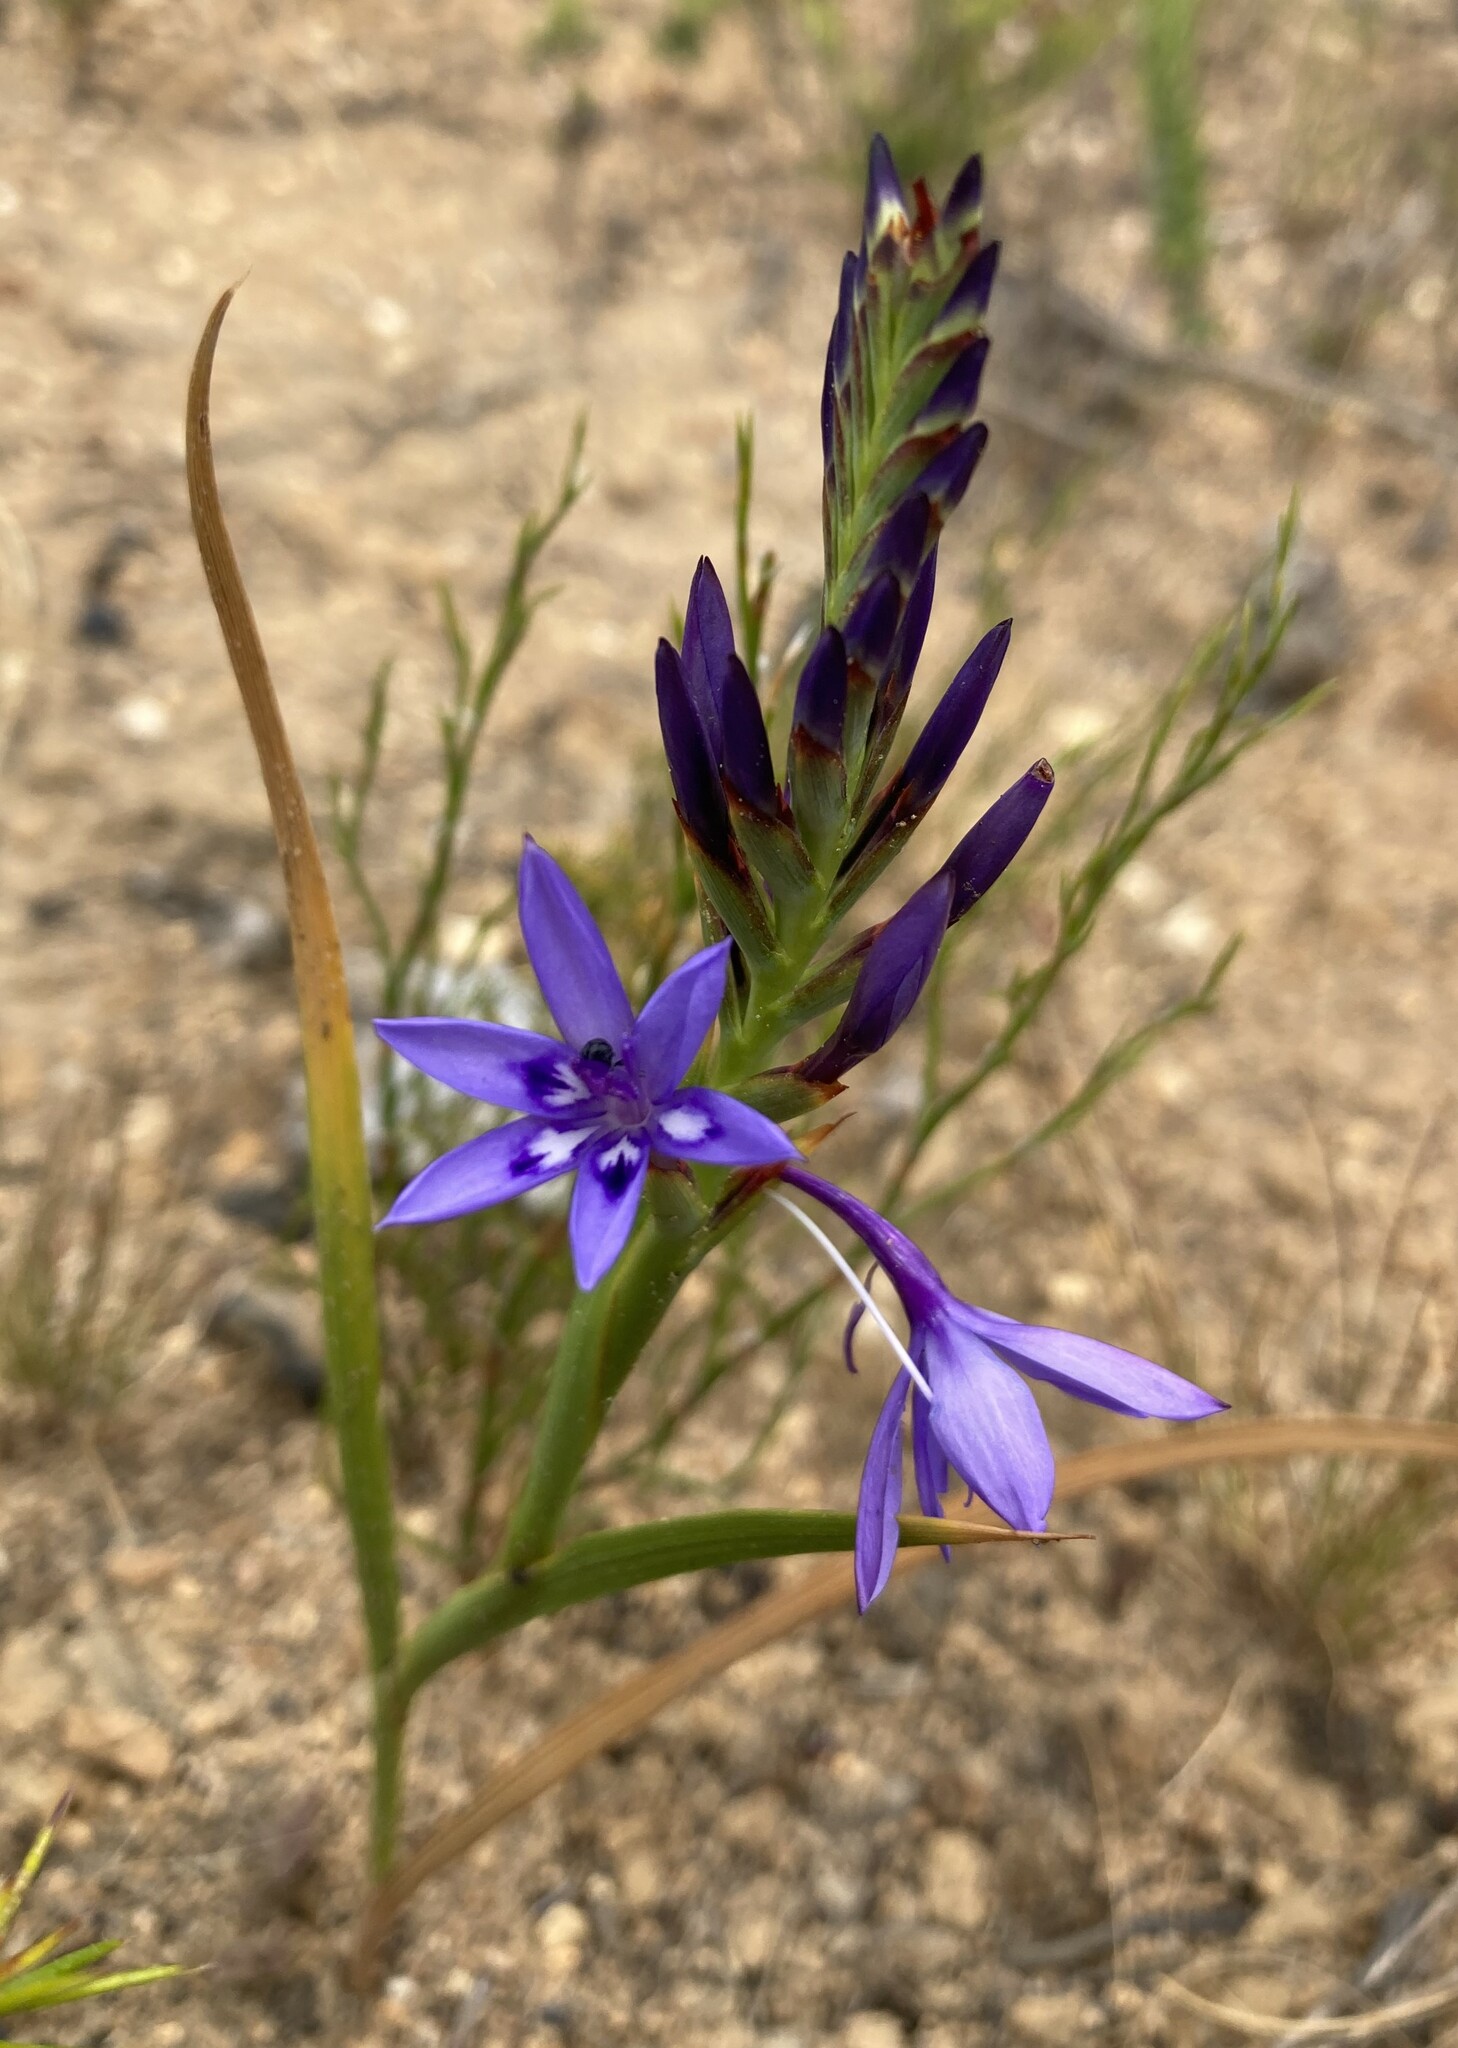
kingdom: Plantae
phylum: Tracheophyta
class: Liliopsida
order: Asparagales
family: Iridaceae
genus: Thereianthus
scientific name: Thereianthus spicatus
